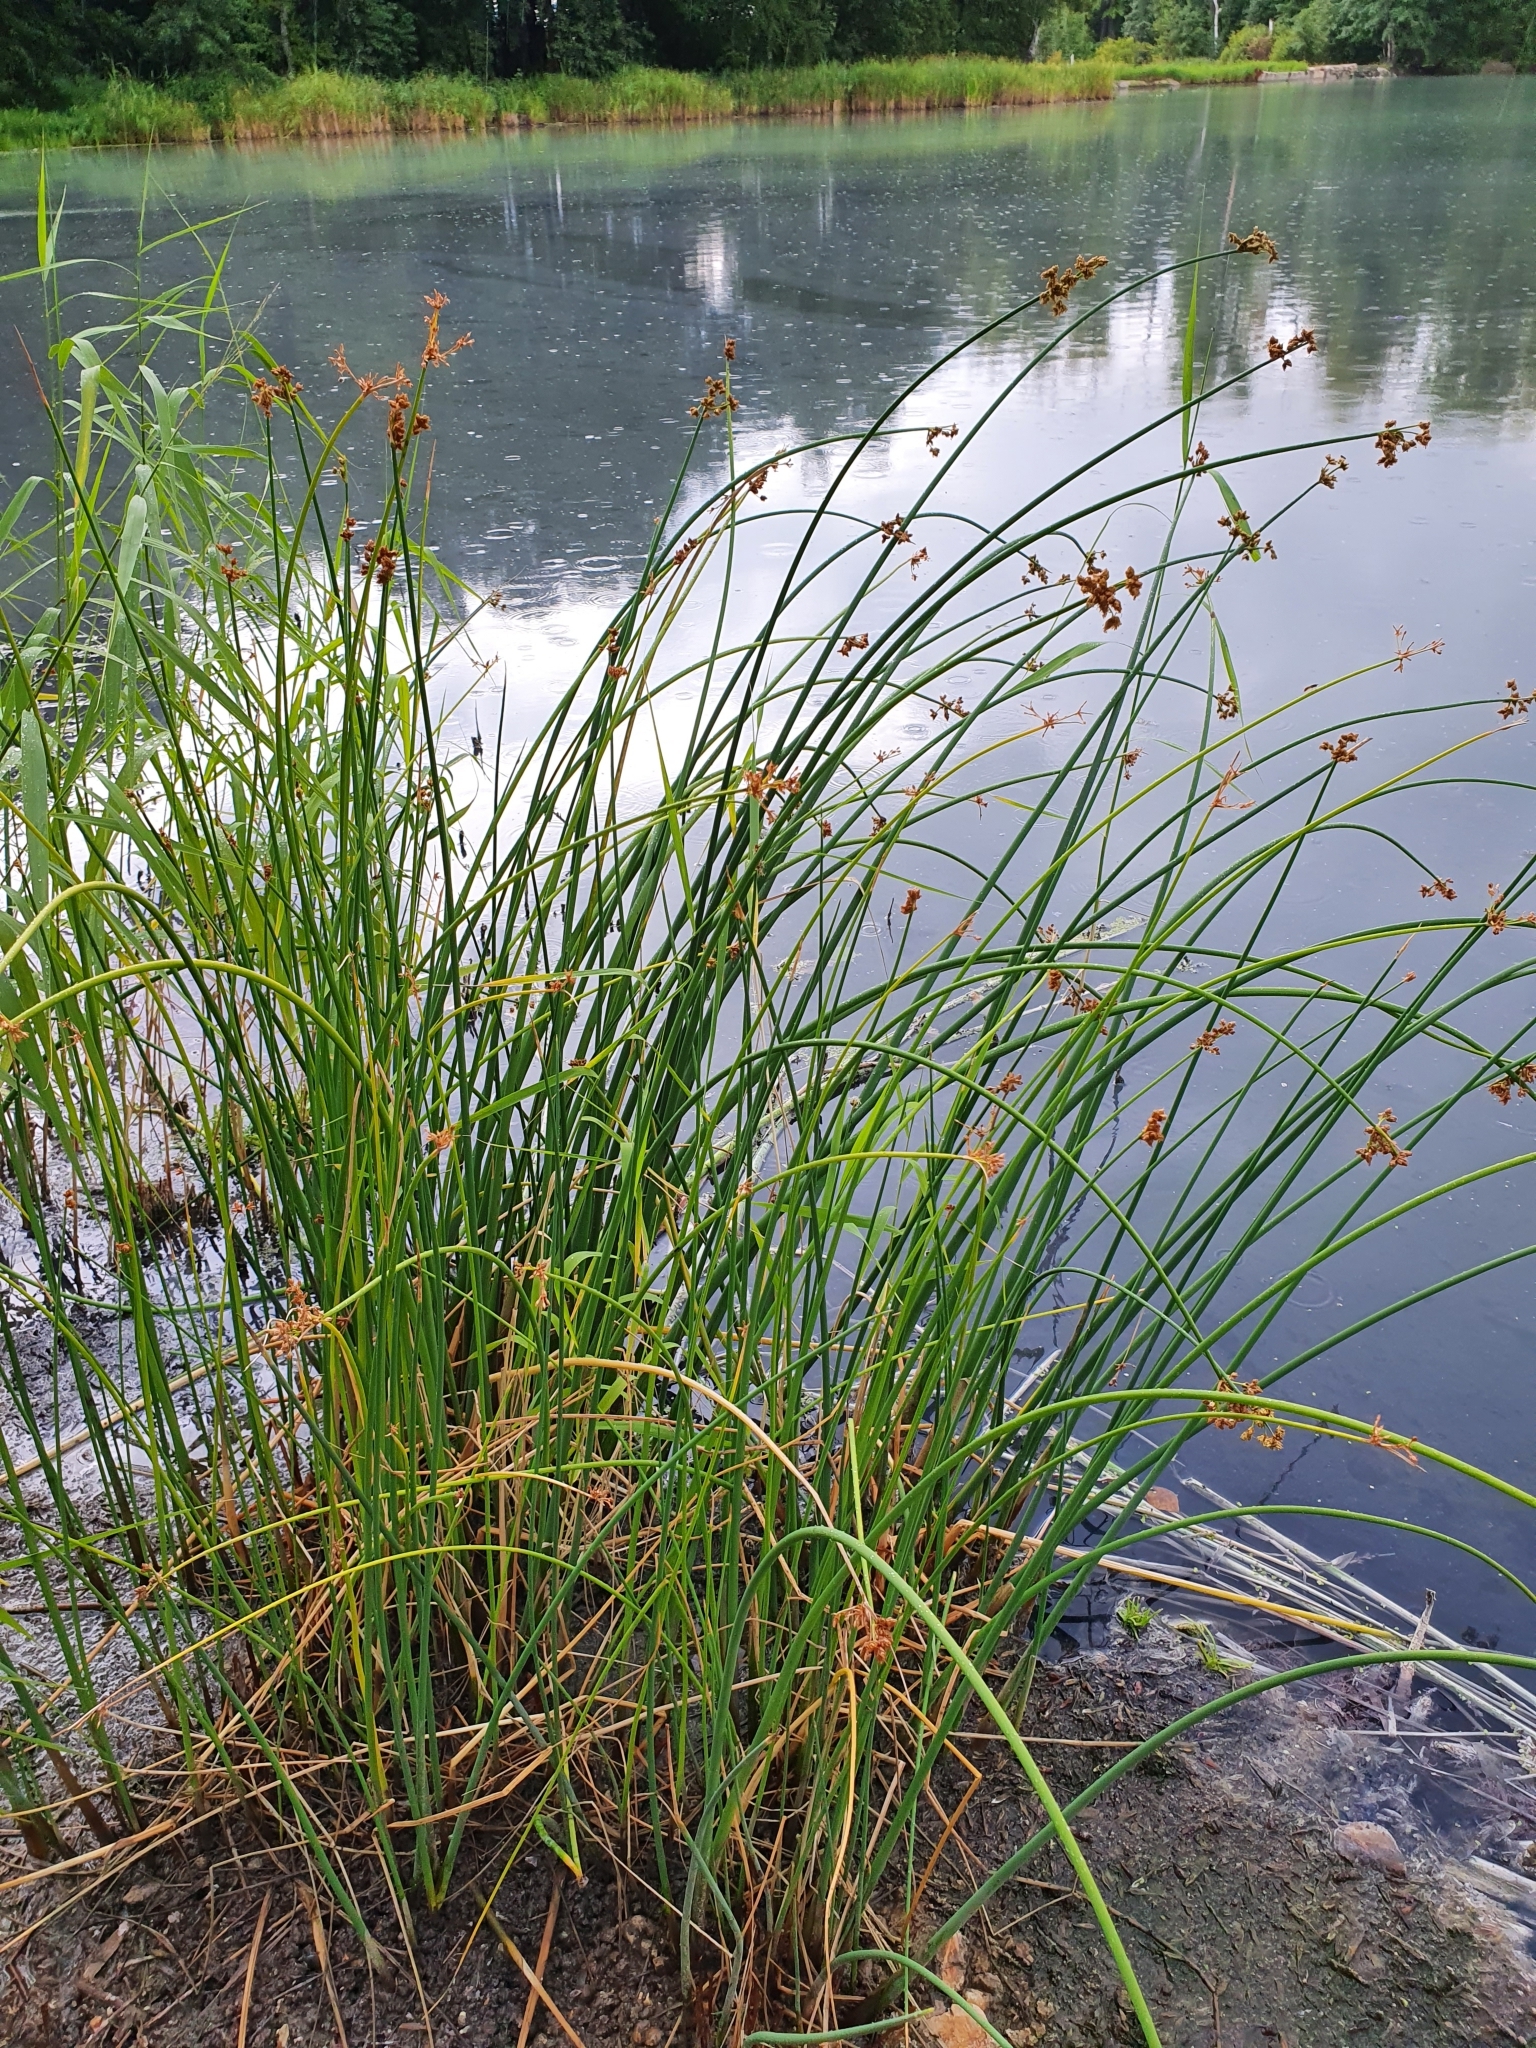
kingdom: Plantae
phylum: Tracheophyta
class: Liliopsida
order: Poales
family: Cyperaceae
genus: Schoenoplectus
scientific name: Schoenoplectus lacustris
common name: Common club-rush
